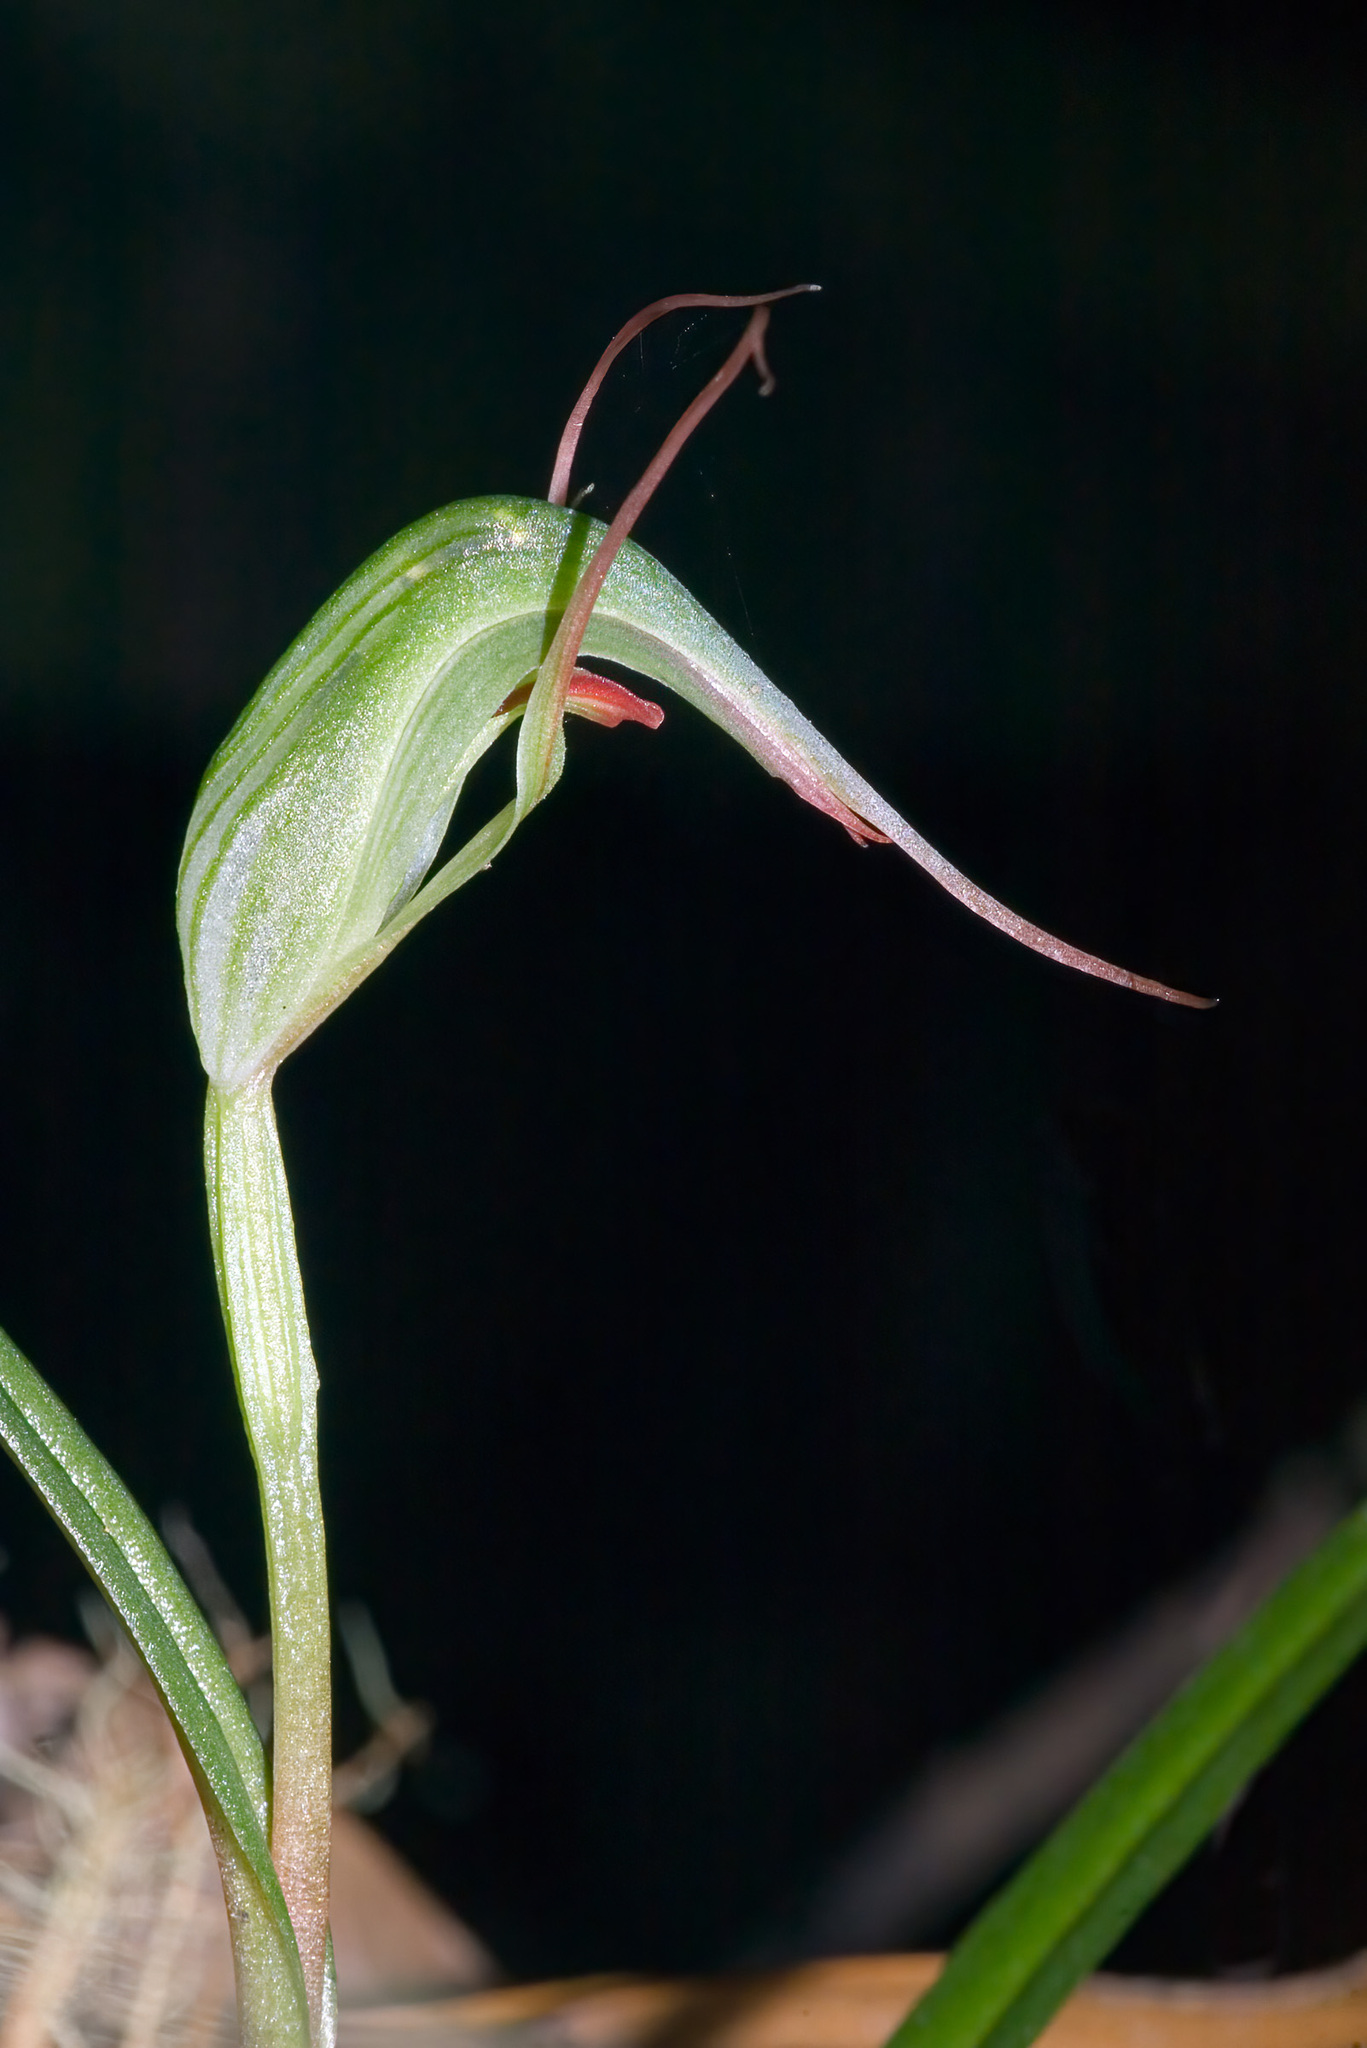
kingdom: Plantae
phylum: Tracheophyta
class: Liliopsida
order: Asparagales
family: Orchidaceae
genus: Pterostylis
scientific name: Pterostylis agathicola
